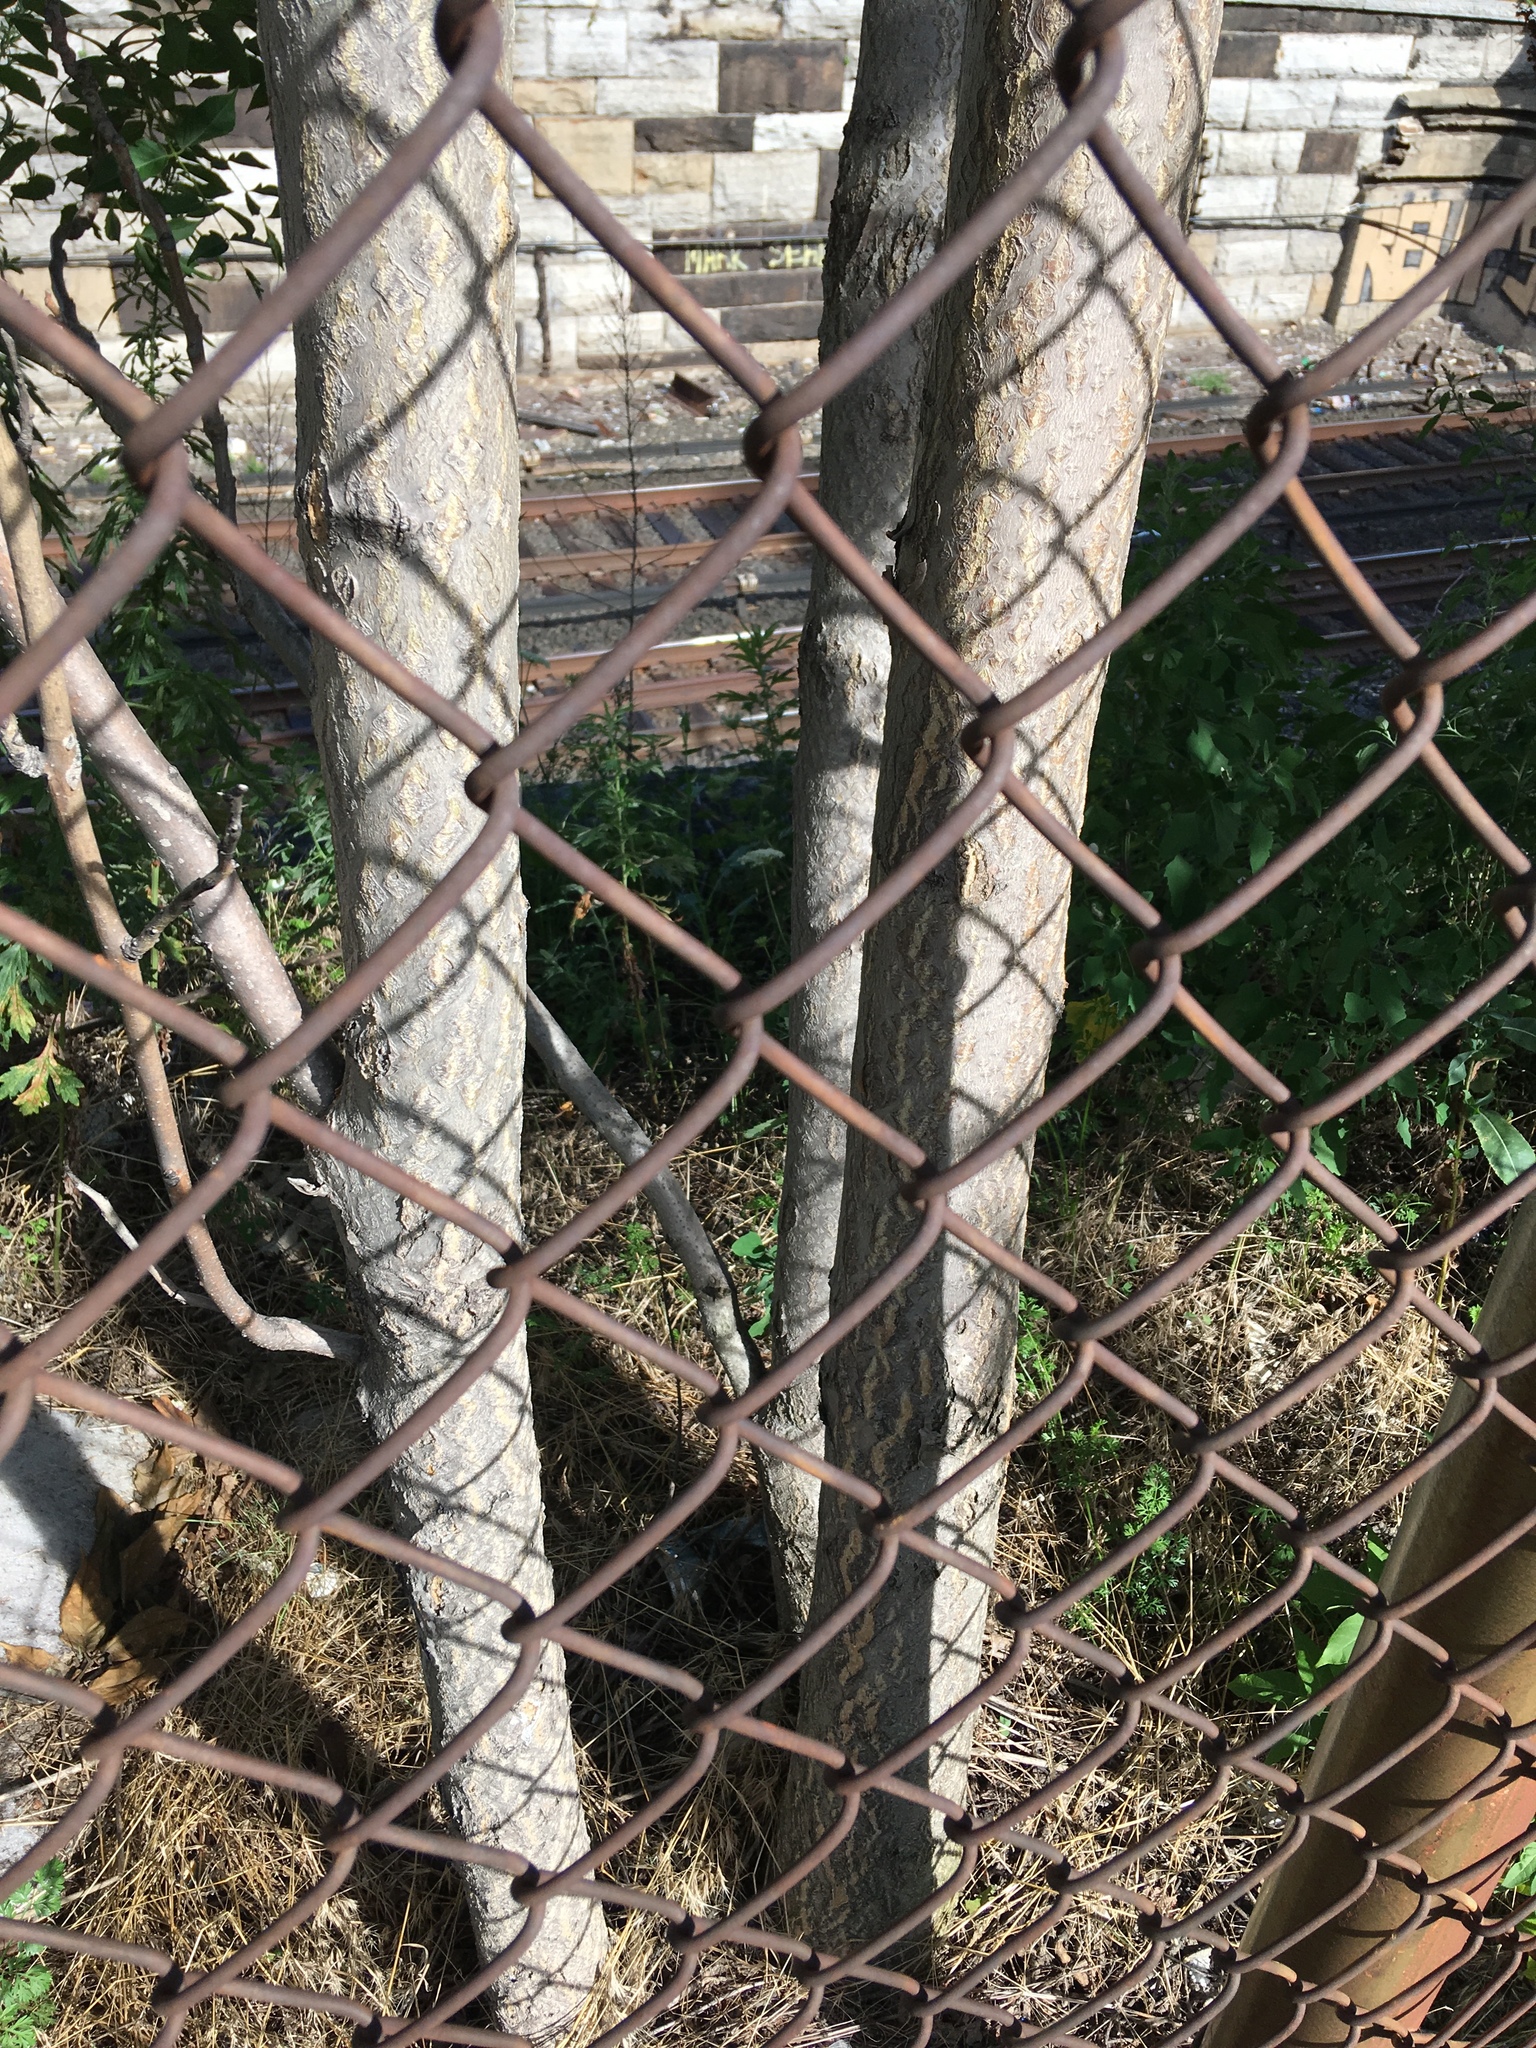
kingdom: Plantae
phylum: Tracheophyta
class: Magnoliopsida
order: Sapindales
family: Simaroubaceae
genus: Ailanthus
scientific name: Ailanthus altissima
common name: Tree-of-heaven
